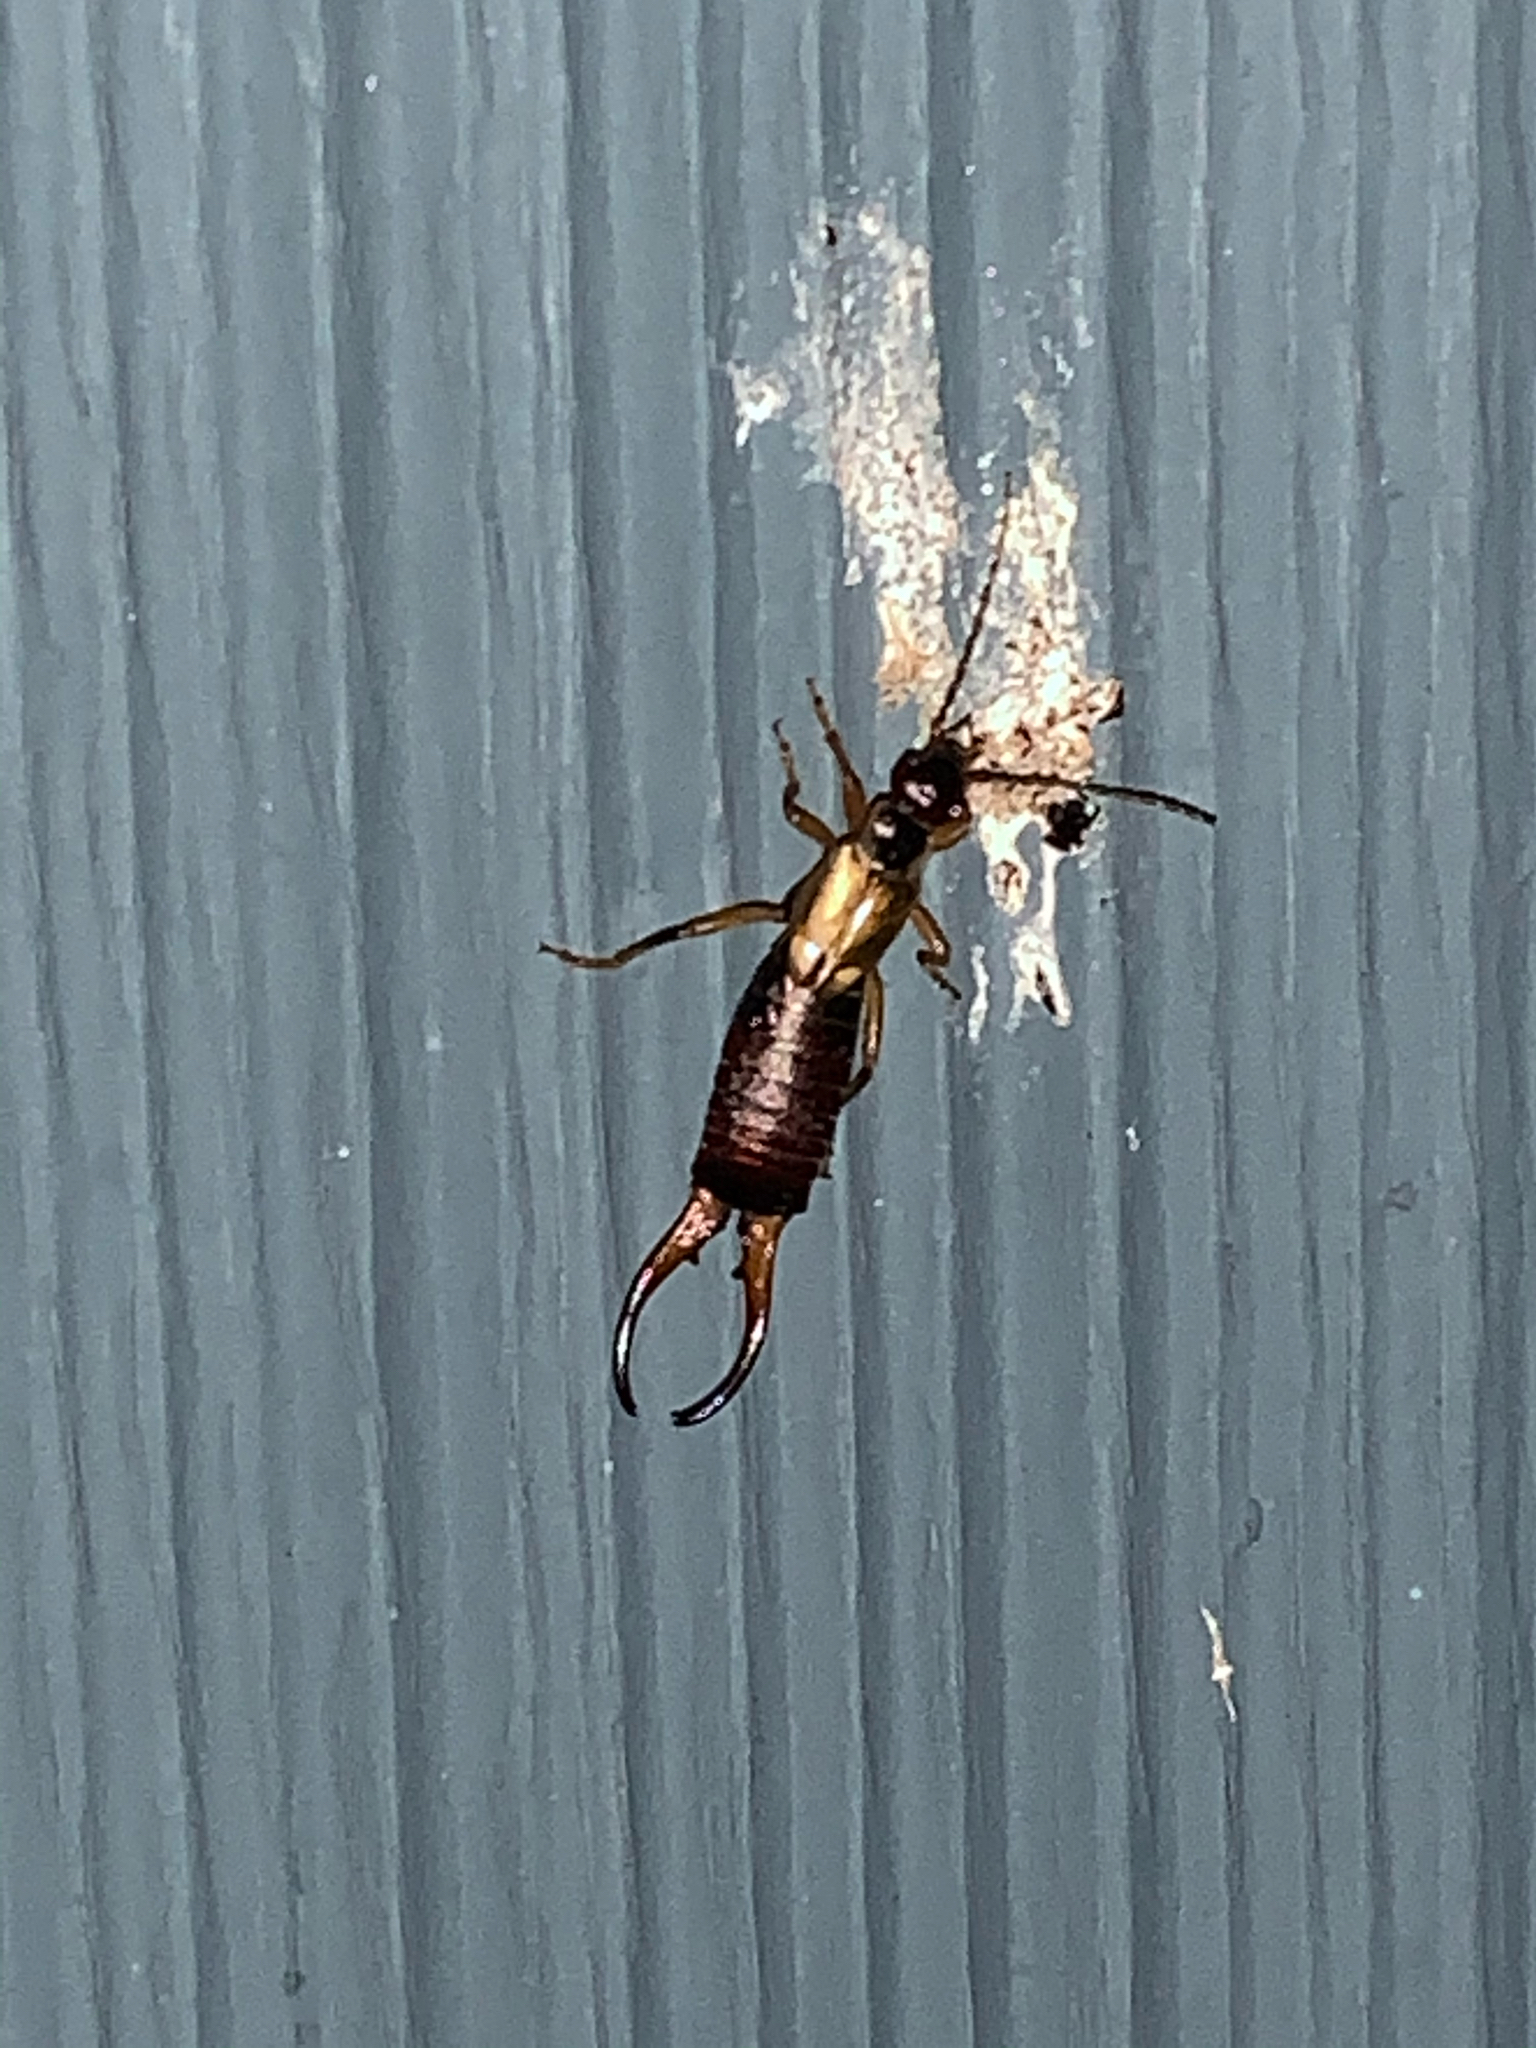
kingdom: Animalia
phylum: Arthropoda
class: Insecta
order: Dermaptera
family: Forficulidae
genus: Forficula
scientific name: Forficula
